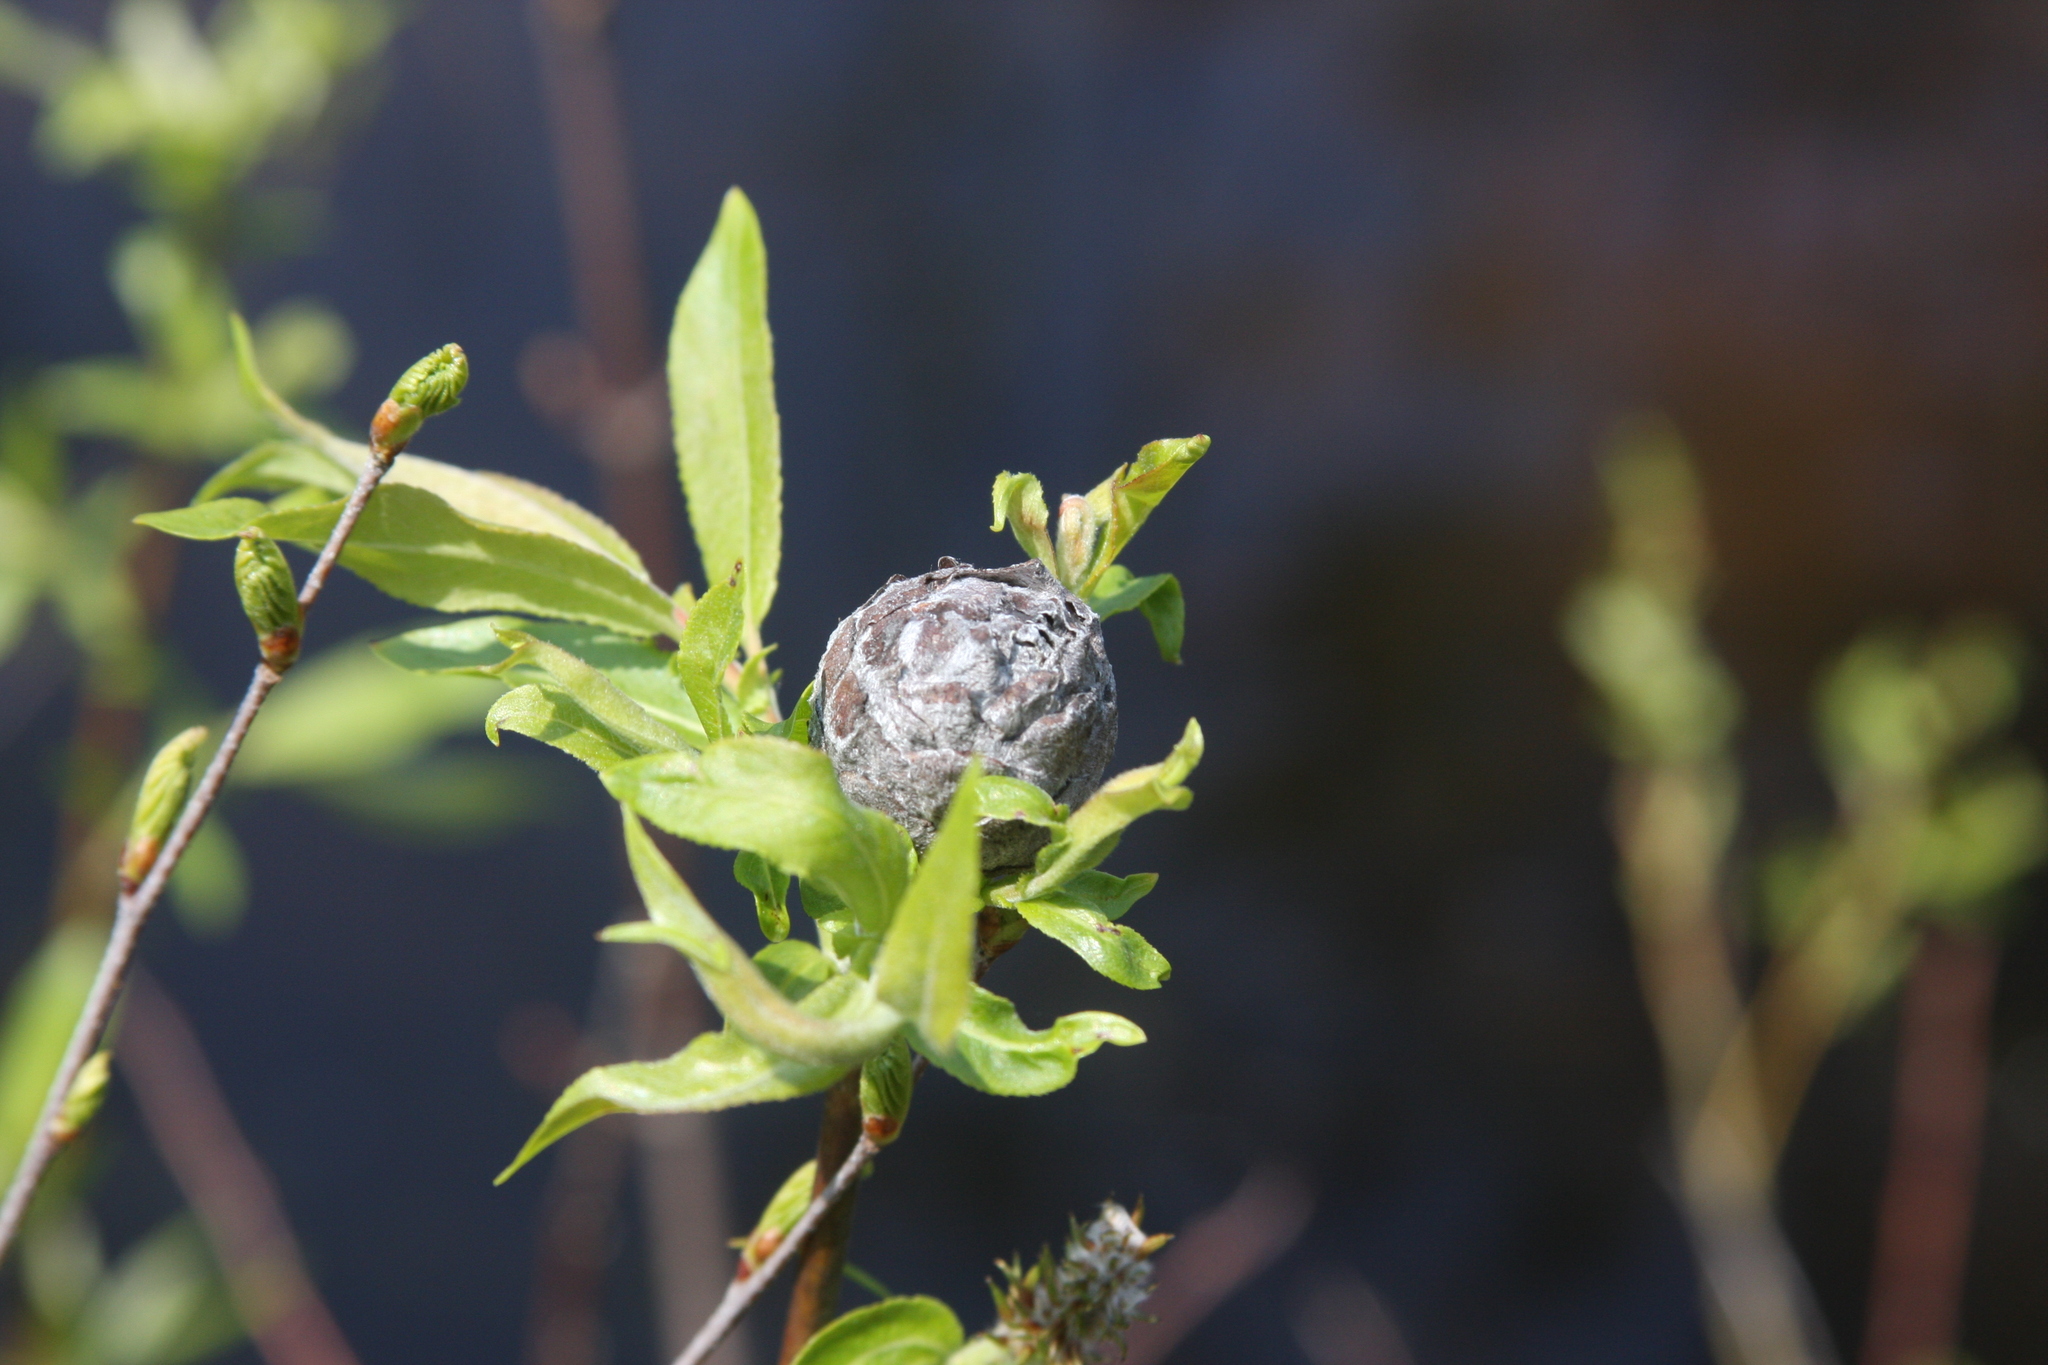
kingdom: Animalia
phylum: Arthropoda
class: Insecta
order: Diptera
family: Cecidomyiidae
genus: Rabdophaga
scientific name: Rabdophaga strobiloides
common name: Willow pinecone gall midge
